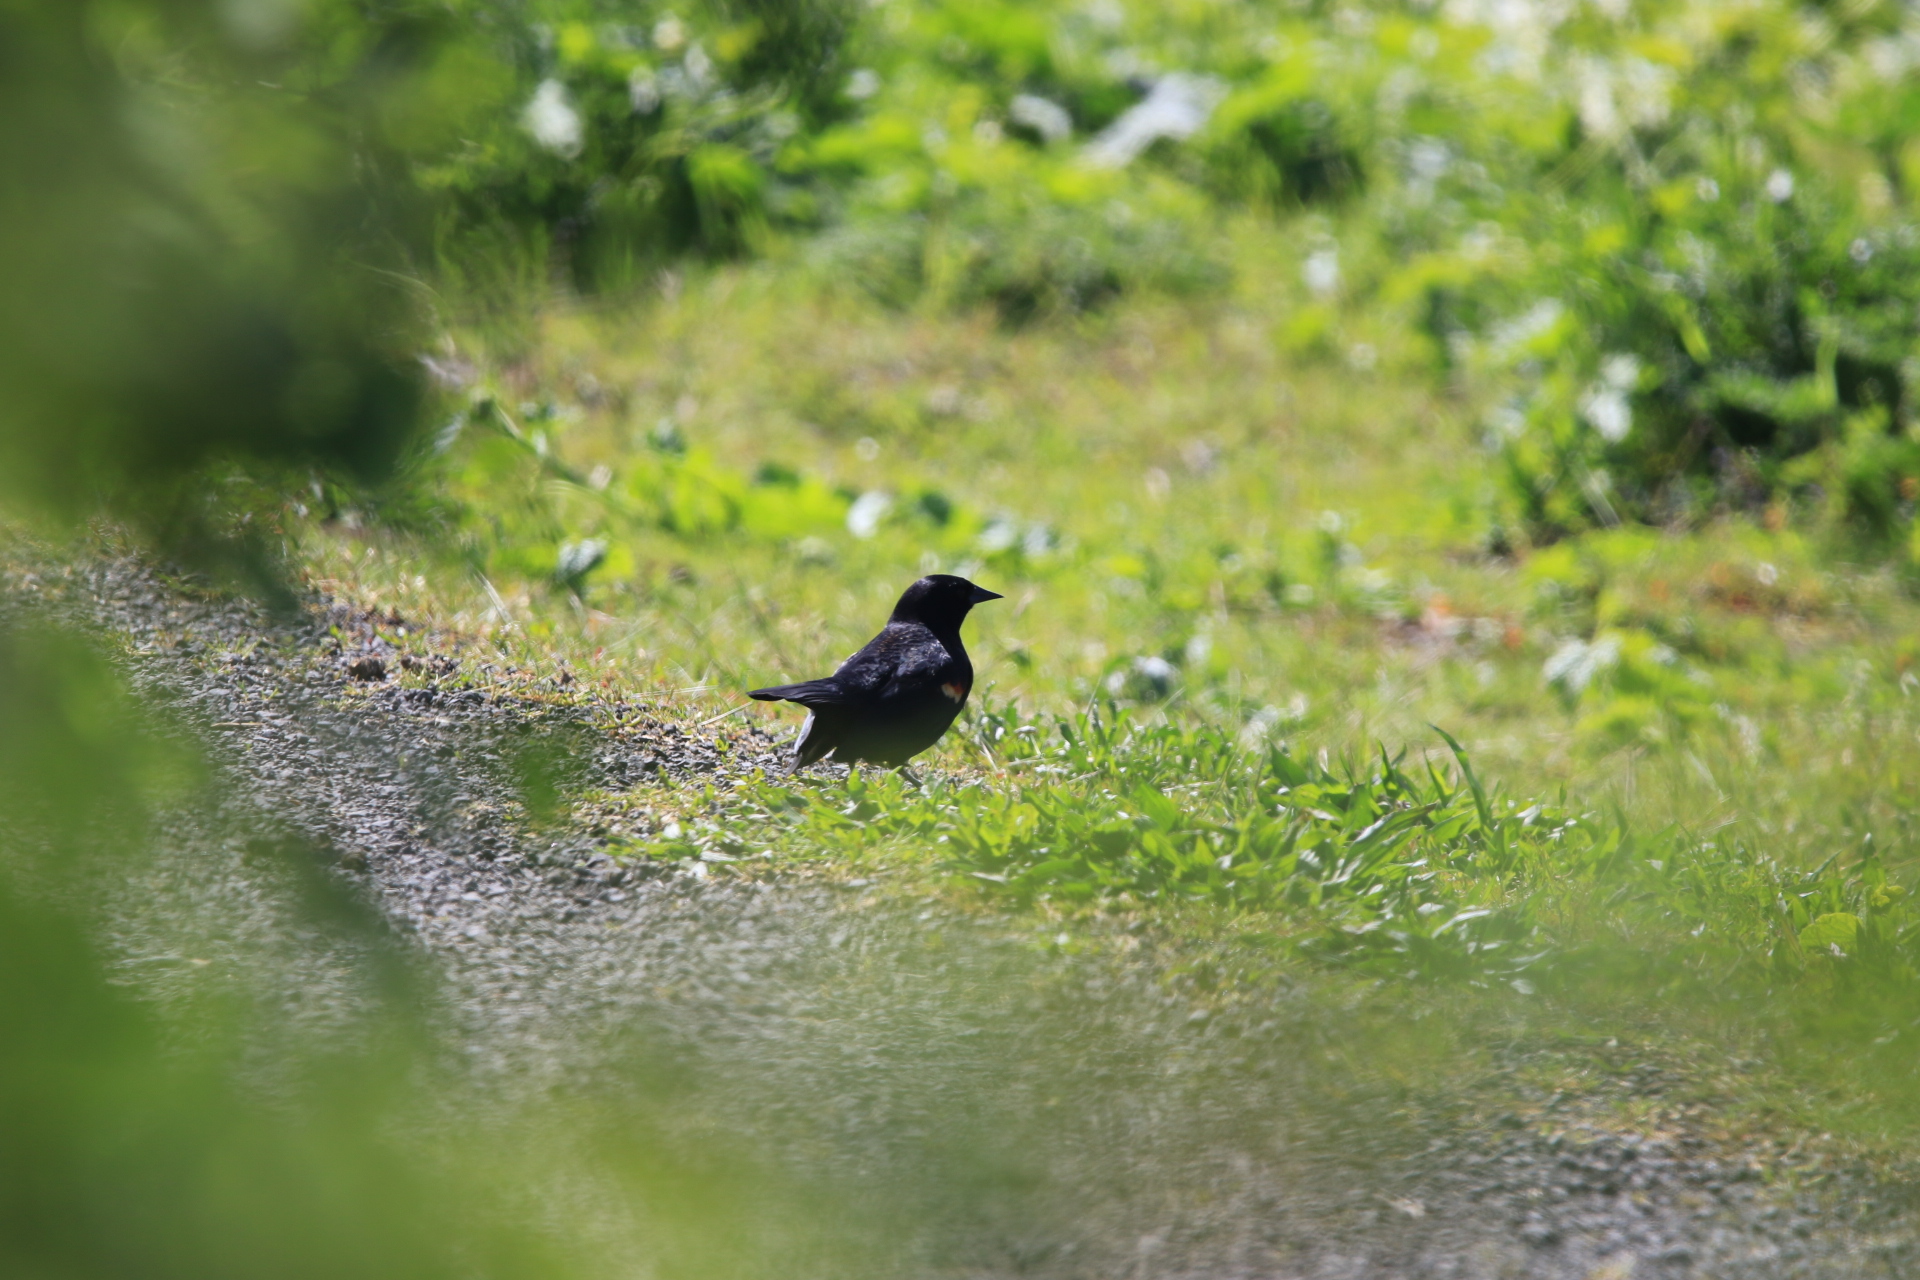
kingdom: Animalia
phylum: Chordata
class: Aves
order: Passeriformes
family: Icteridae
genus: Agelaius
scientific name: Agelaius phoeniceus
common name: Red-winged blackbird
